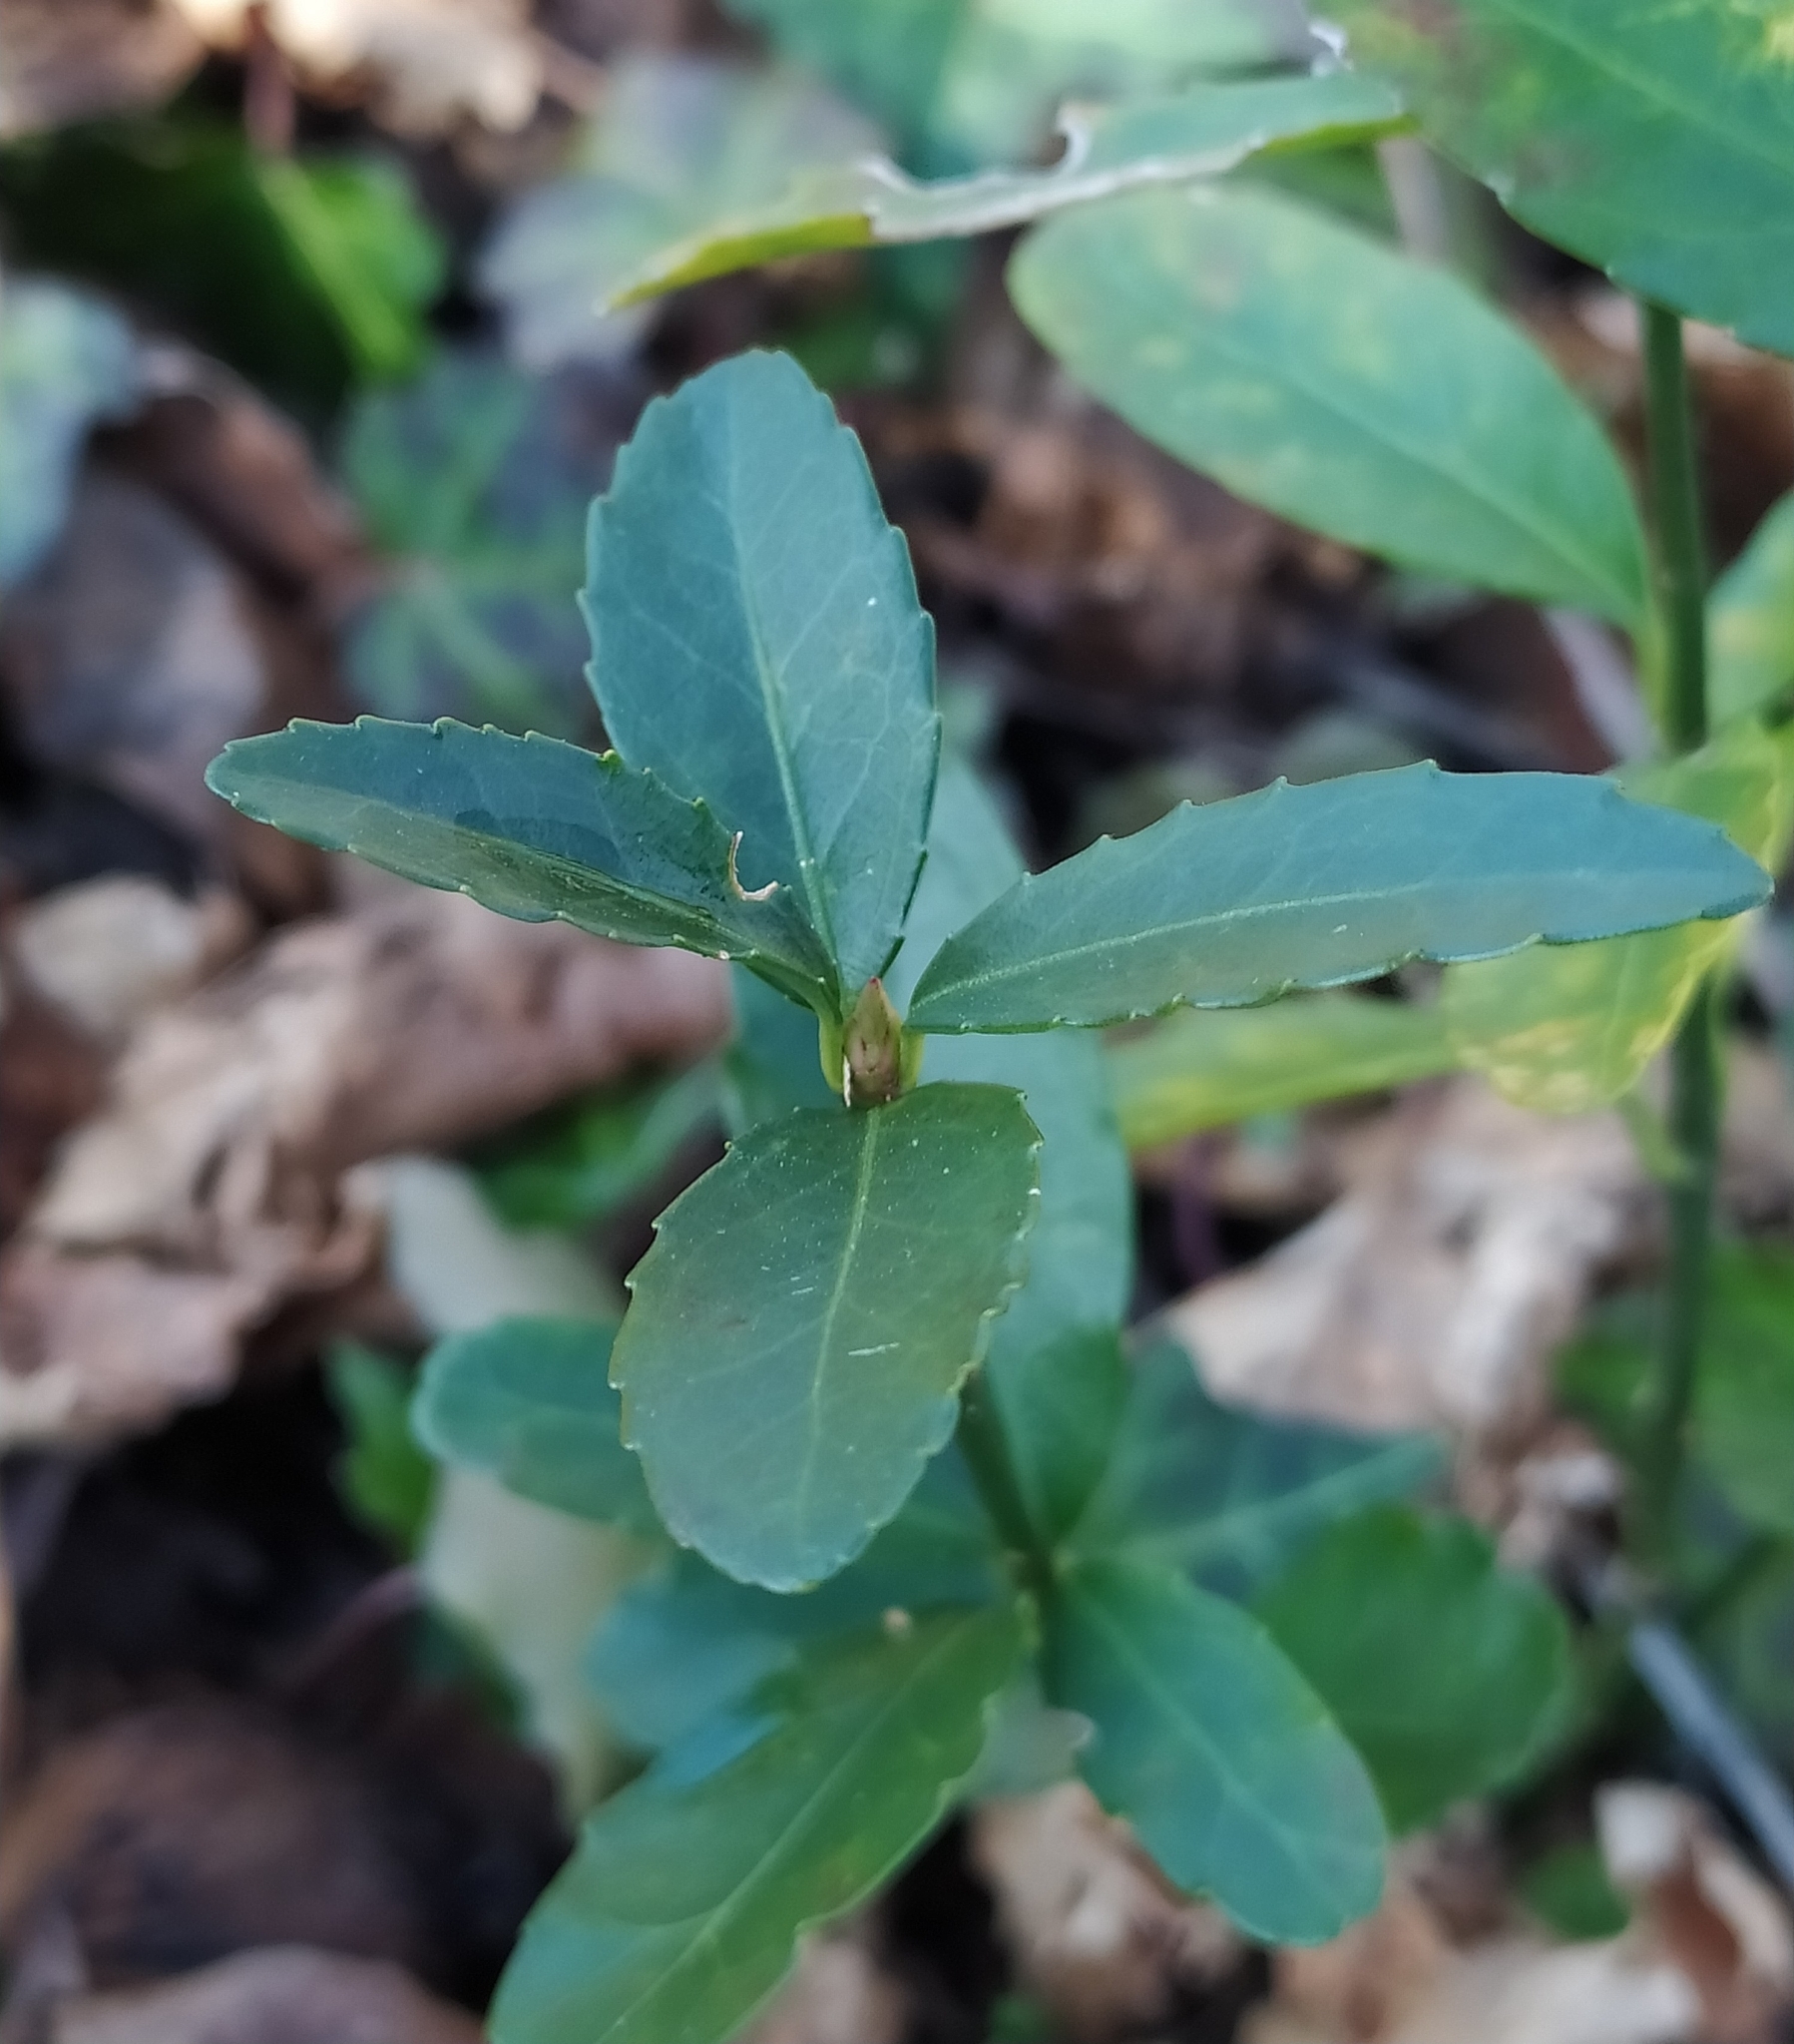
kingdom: Plantae
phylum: Tracheophyta
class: Magnoliopsida
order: Lamiales
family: Oleaceae
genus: Phillyrea
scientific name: Phillyrea latifolia
